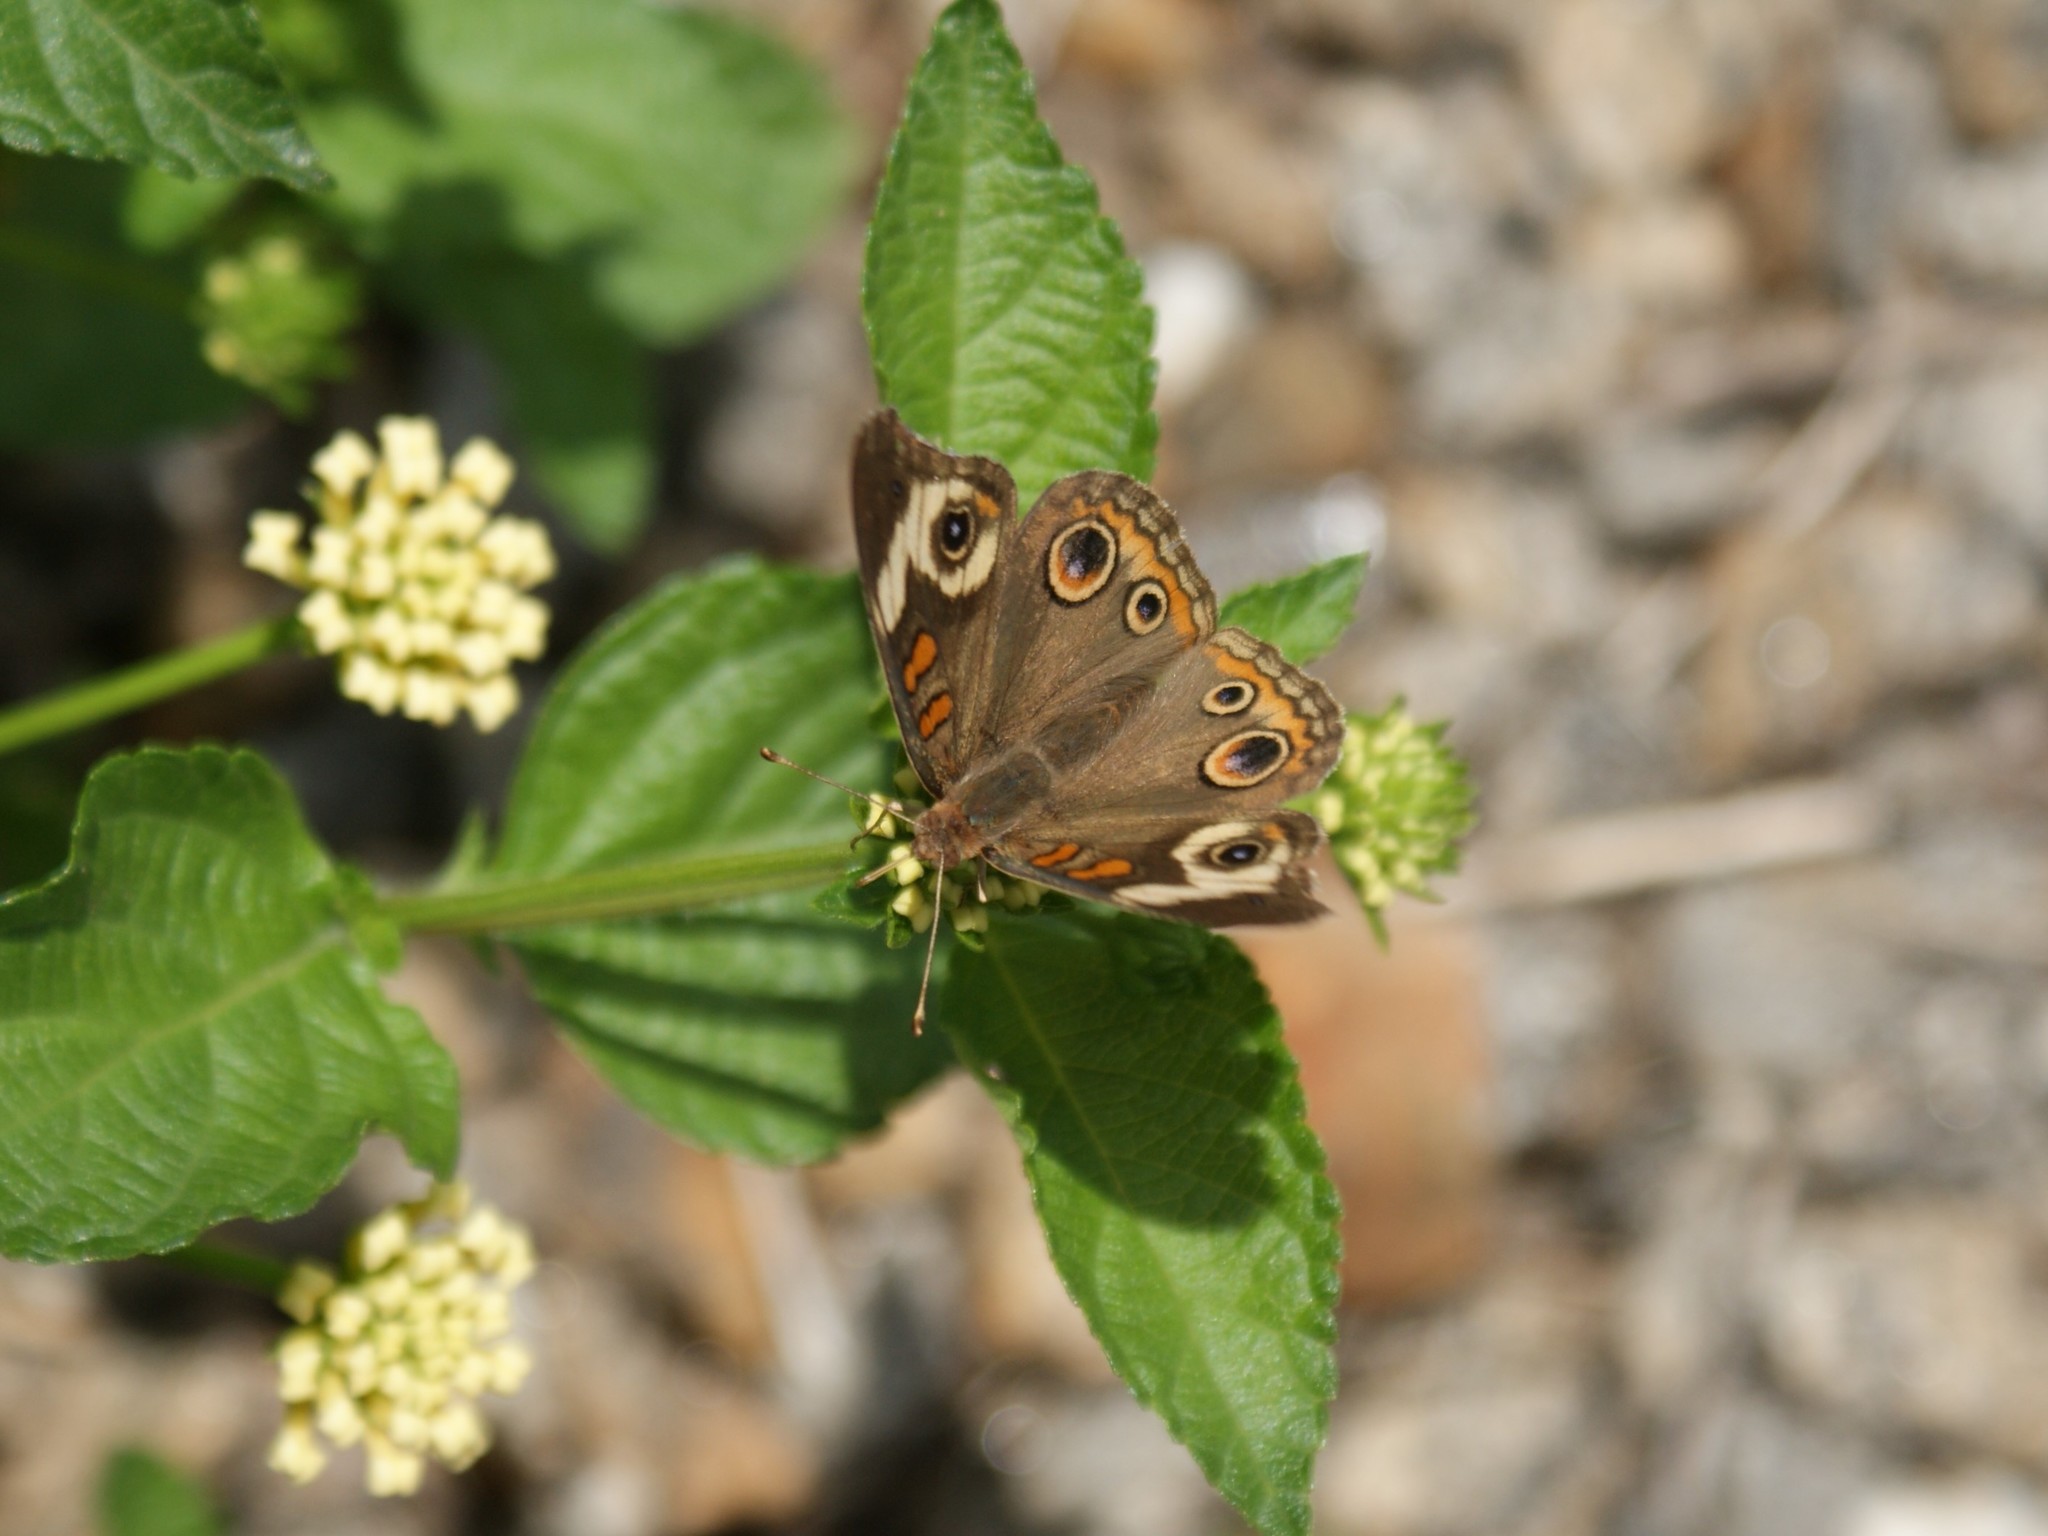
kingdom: Animalia
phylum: Arthropoda
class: Insecta
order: Lepidoptera
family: Nymphalidae
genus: Junonia
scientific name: Junonia coenia
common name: Common buckeye
